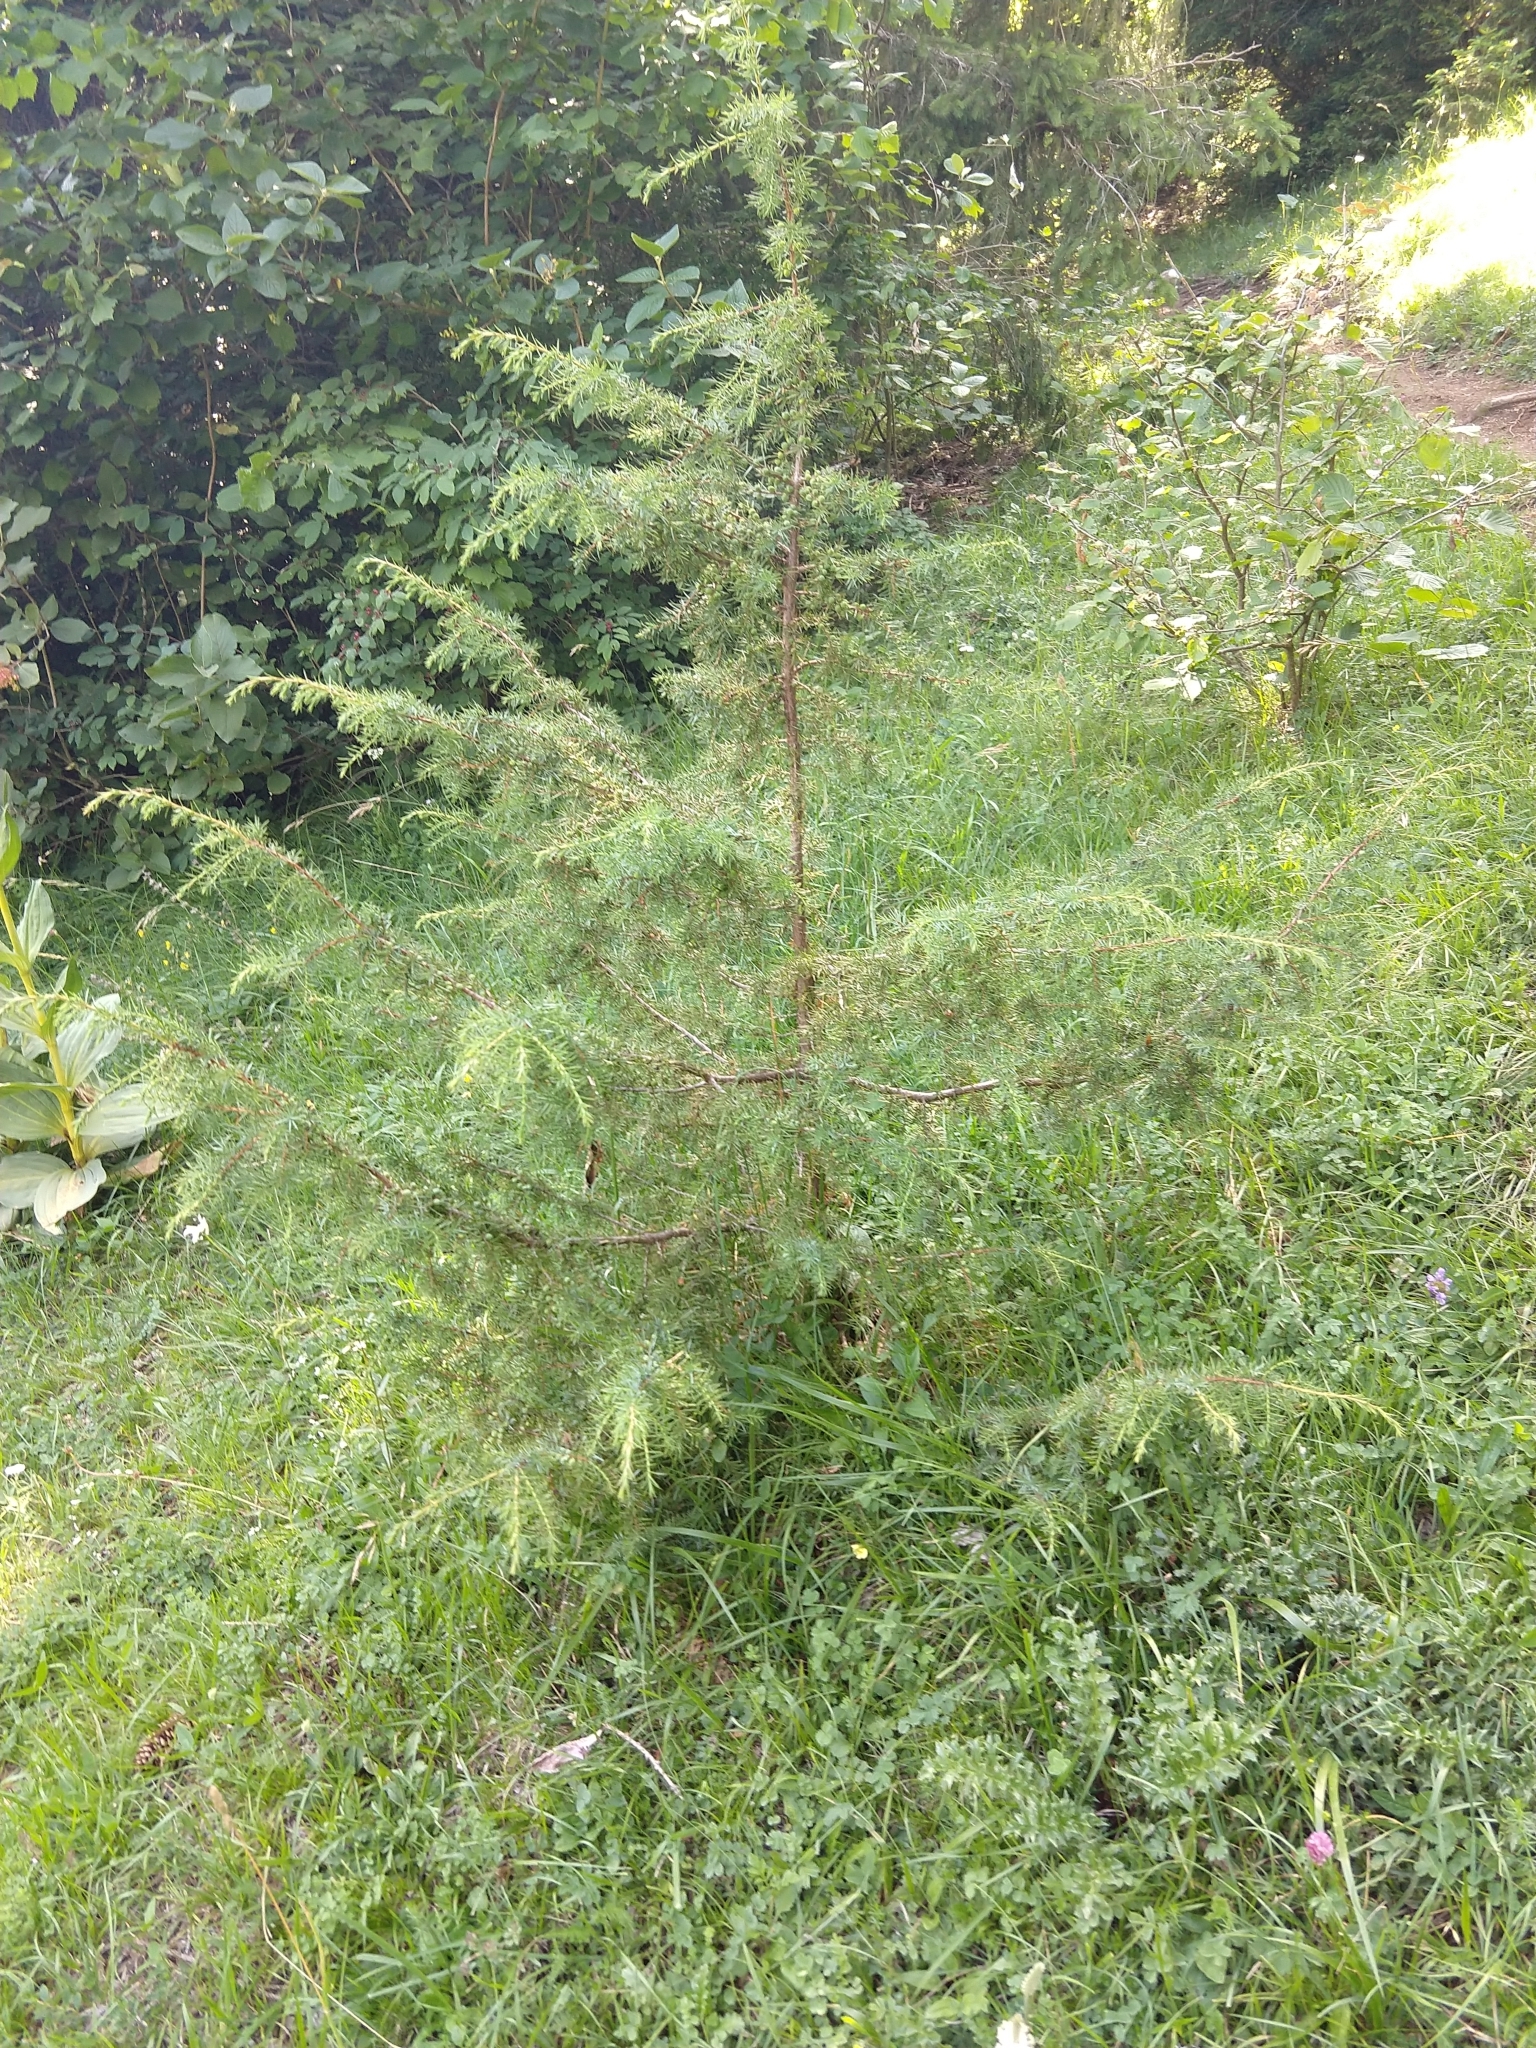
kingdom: Plantae
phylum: Tracheophyta
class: Pinopsida
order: Pinales
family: Cupressaceae
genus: Juniperus
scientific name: Juniperus communis
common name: Common juniper
